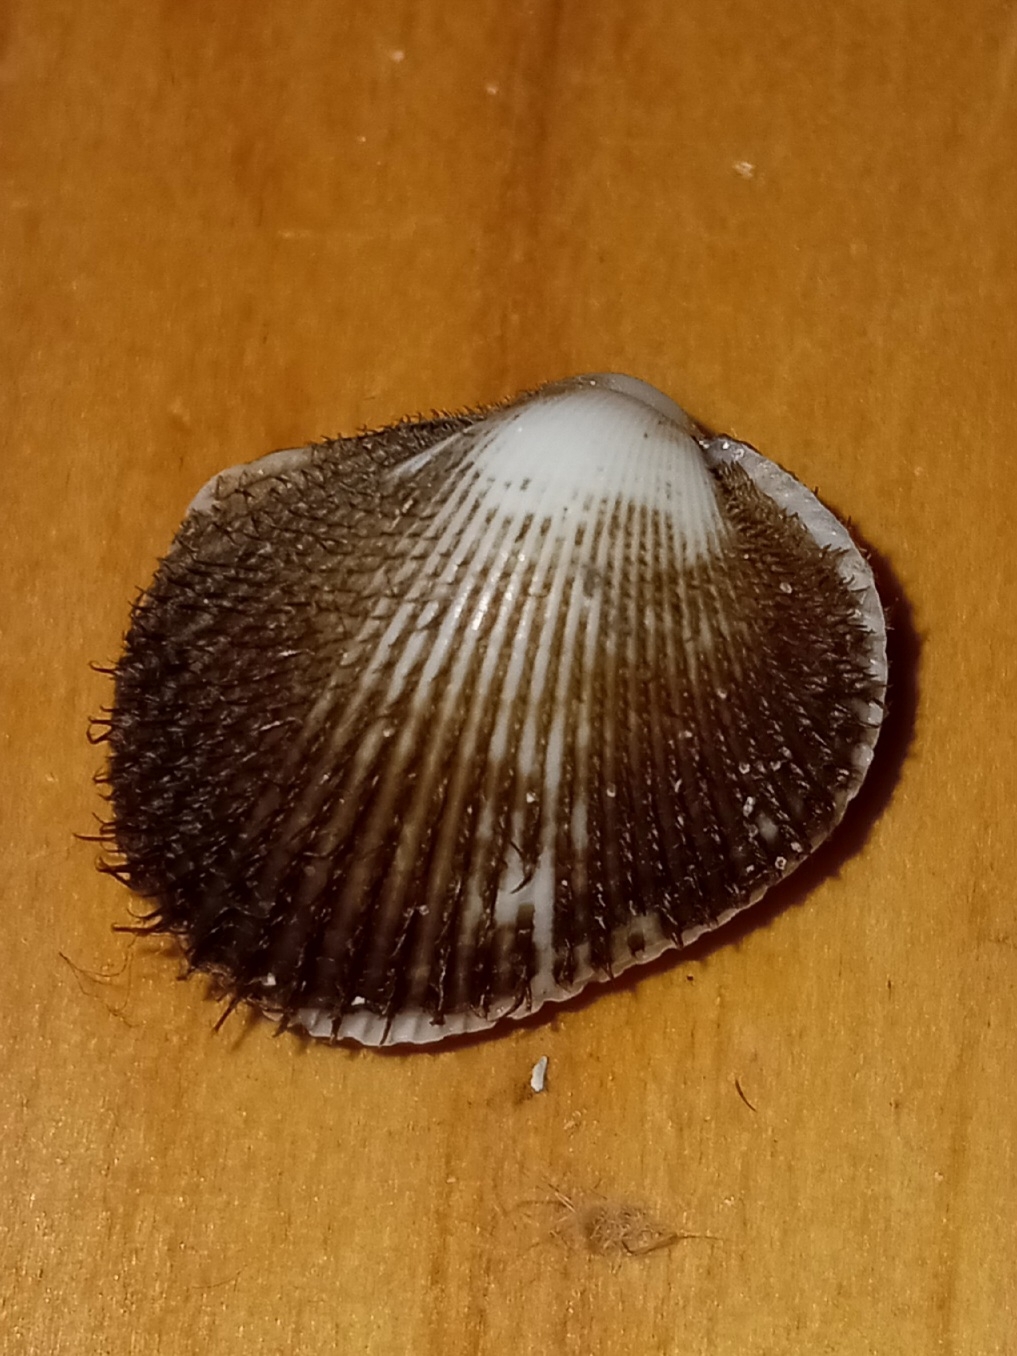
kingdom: Animalia
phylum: Mollusca
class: Bivalvia
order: Arcida
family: Arcidae
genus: Lunarca
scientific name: Lunarca ovalis
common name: Blood ark
